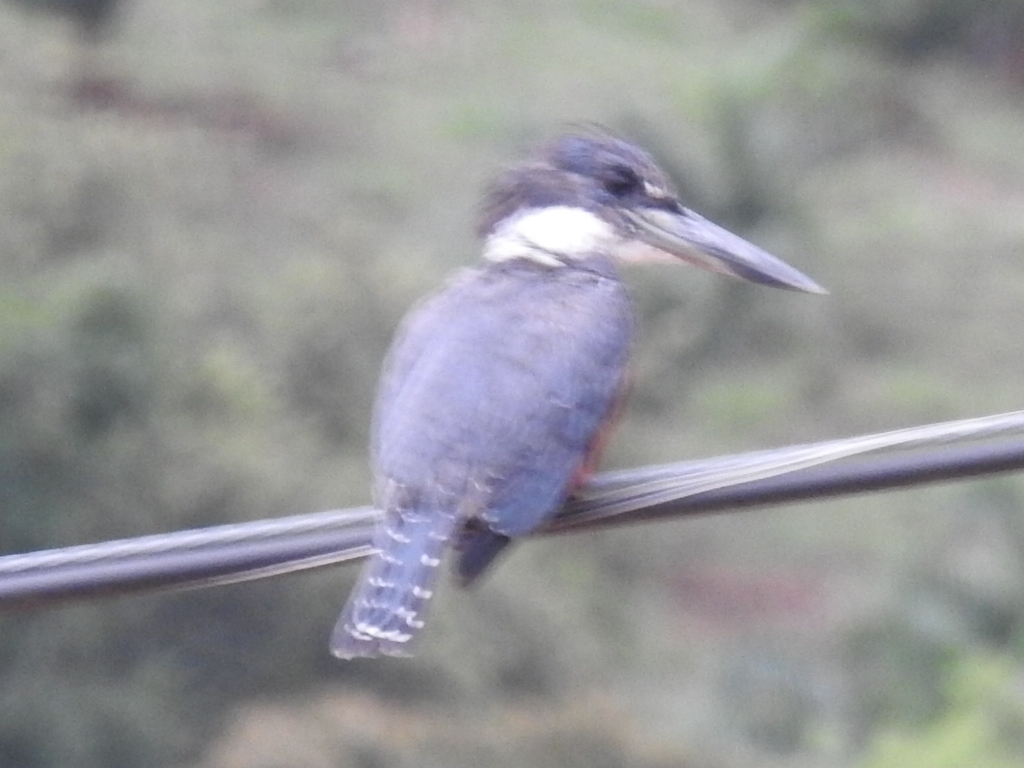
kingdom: Animalia
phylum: Chordata
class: Aves
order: Coraciiformes
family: Alcedinidae
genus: Megaceryle
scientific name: Megaceryle torquata
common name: Ringed kingfisher
